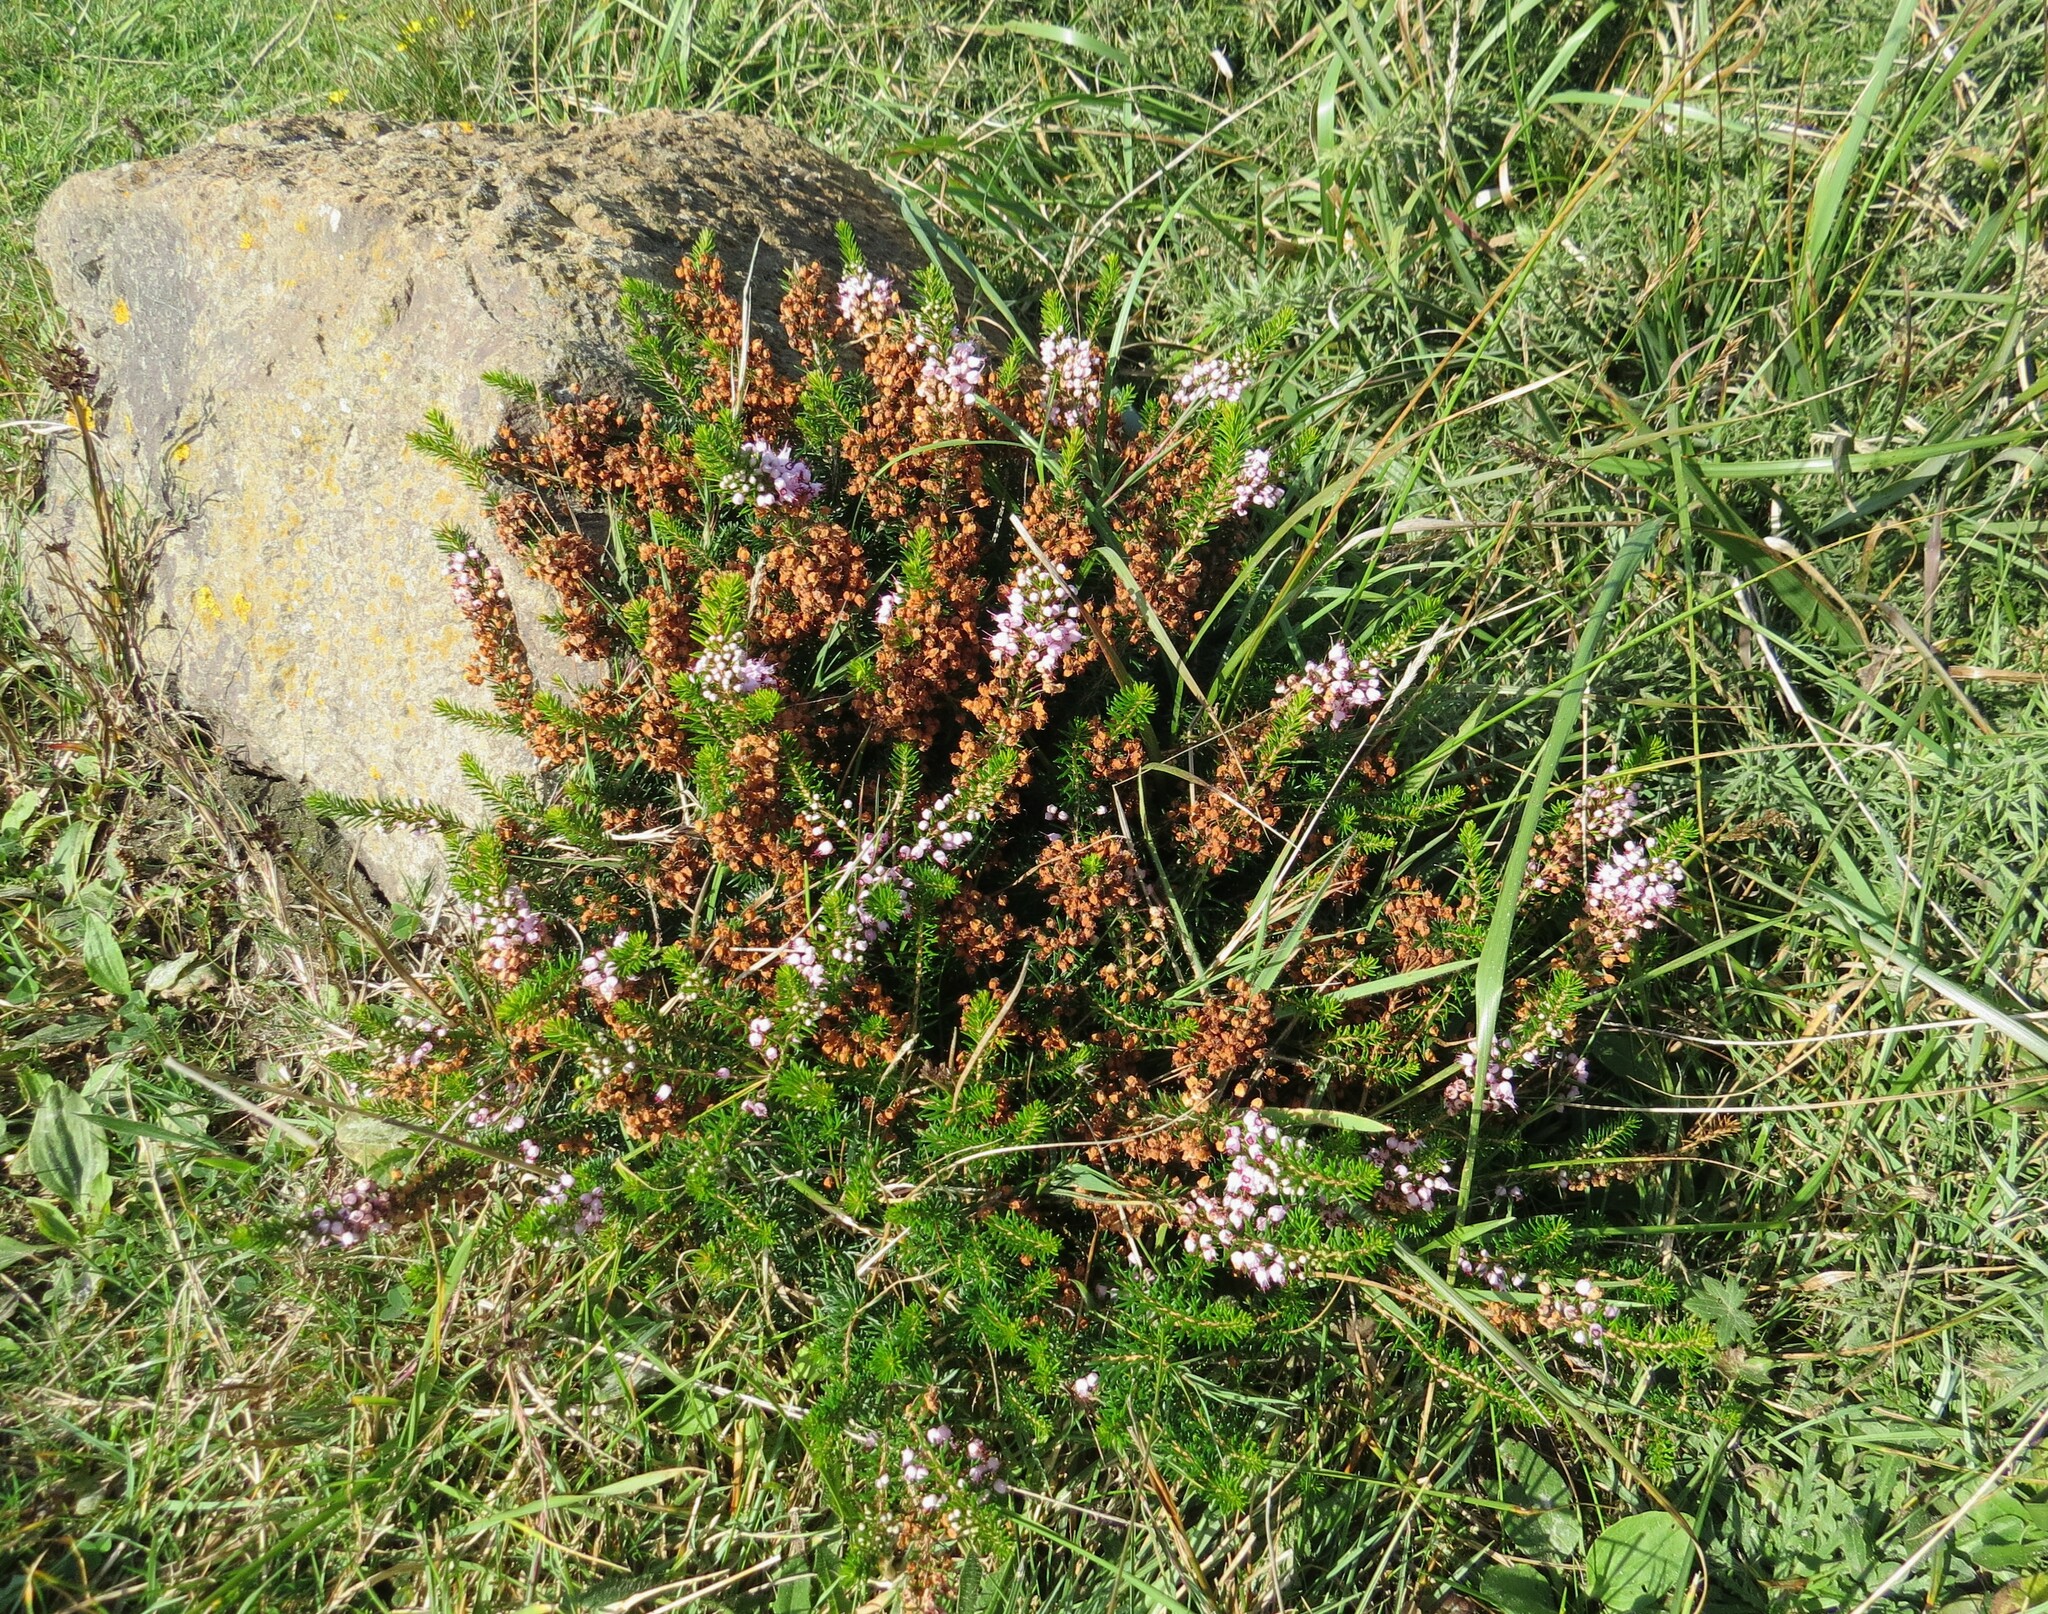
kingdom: Plantae
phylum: Tracheophyta
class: Magnoliopsida
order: Ericales
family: Ericaceae
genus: Erica
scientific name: Erica vagans
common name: Cornish heath
